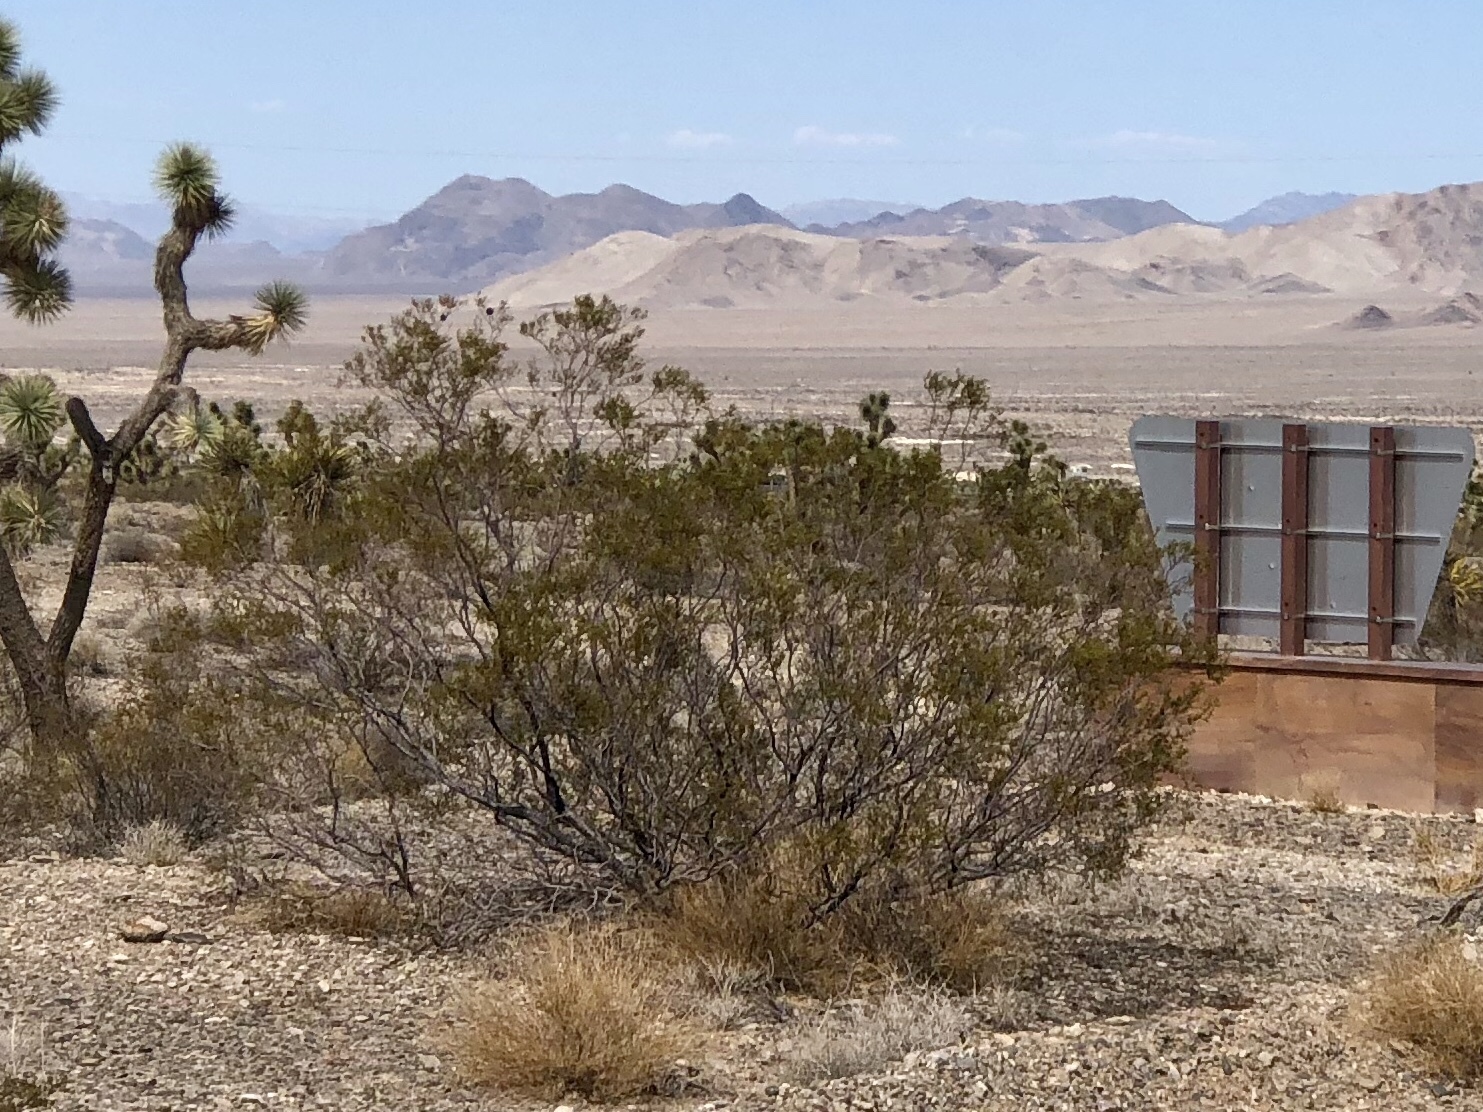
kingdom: Plantae
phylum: Tracheophyta
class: Magnoliopsida
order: Zygophyllales
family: Zygophyllaceae
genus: Larrea
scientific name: Larrea tridentata
